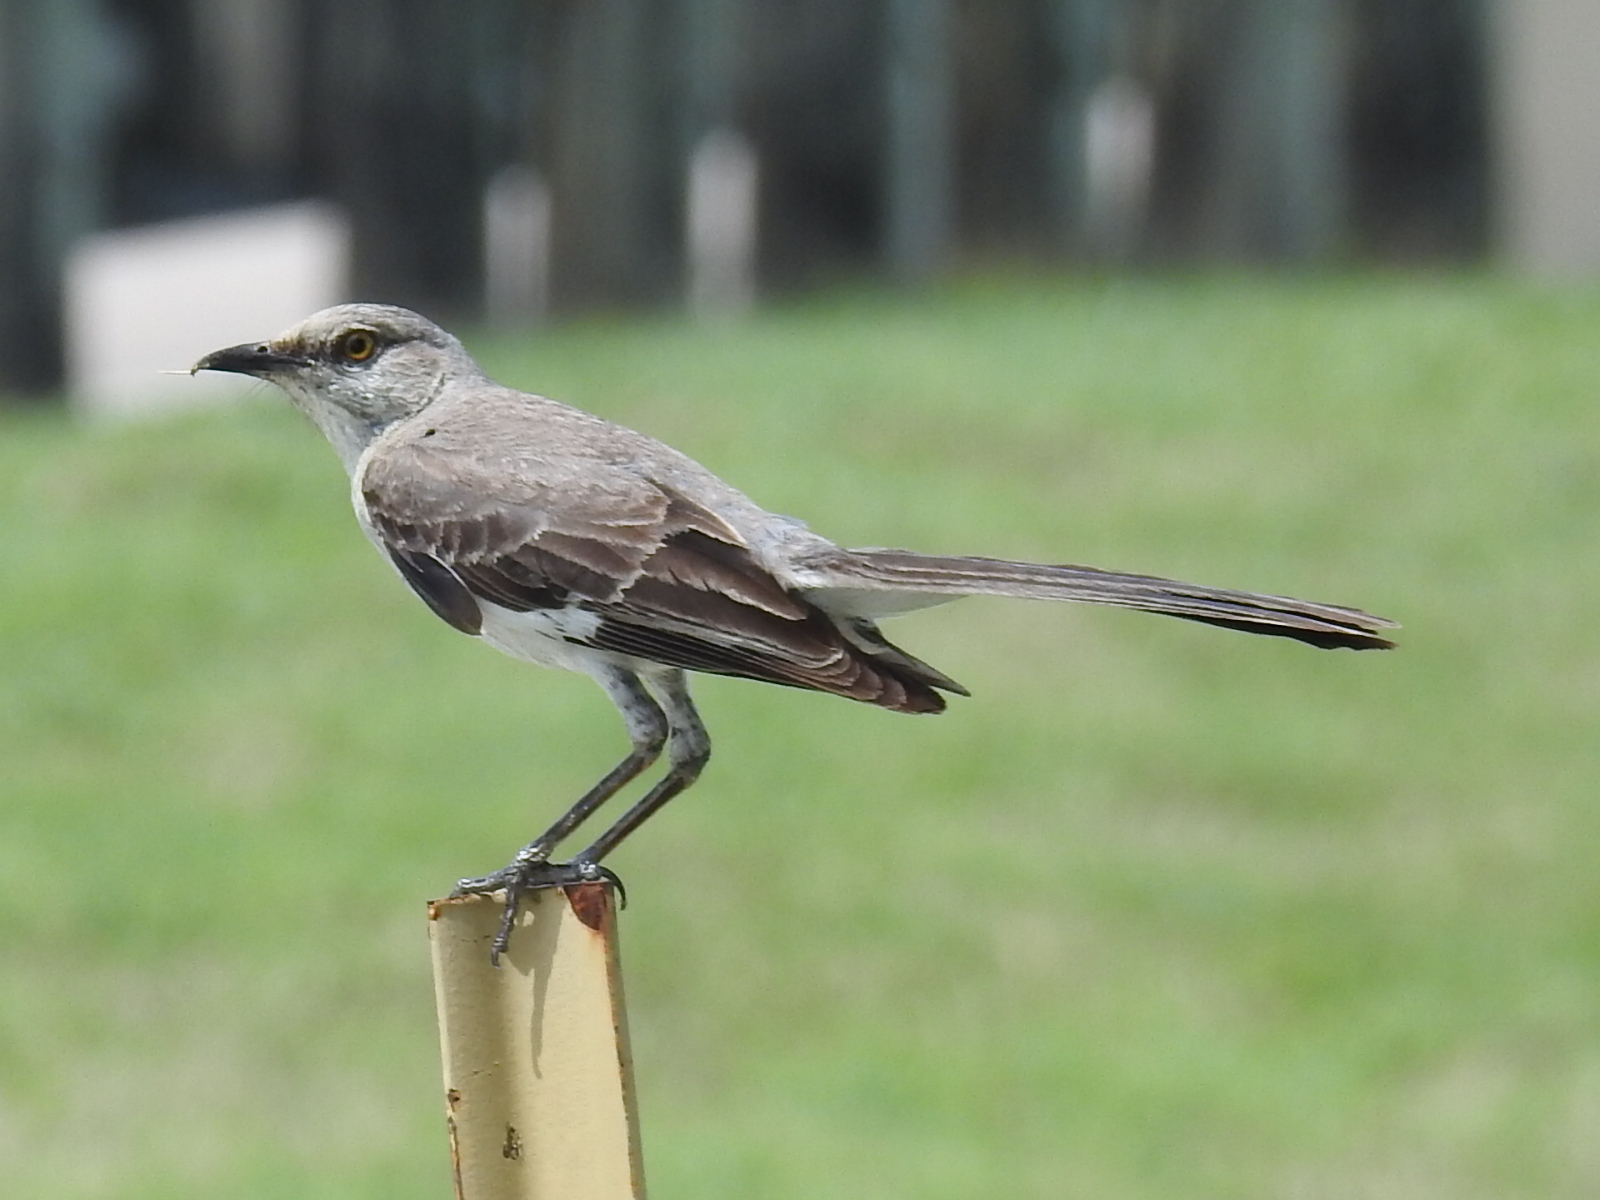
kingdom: Animalia
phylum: Chordata
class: Aves
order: Passeriformes
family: Mimidae
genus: Mimus
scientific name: Mimus polyglottos
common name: Northern mockingbird
